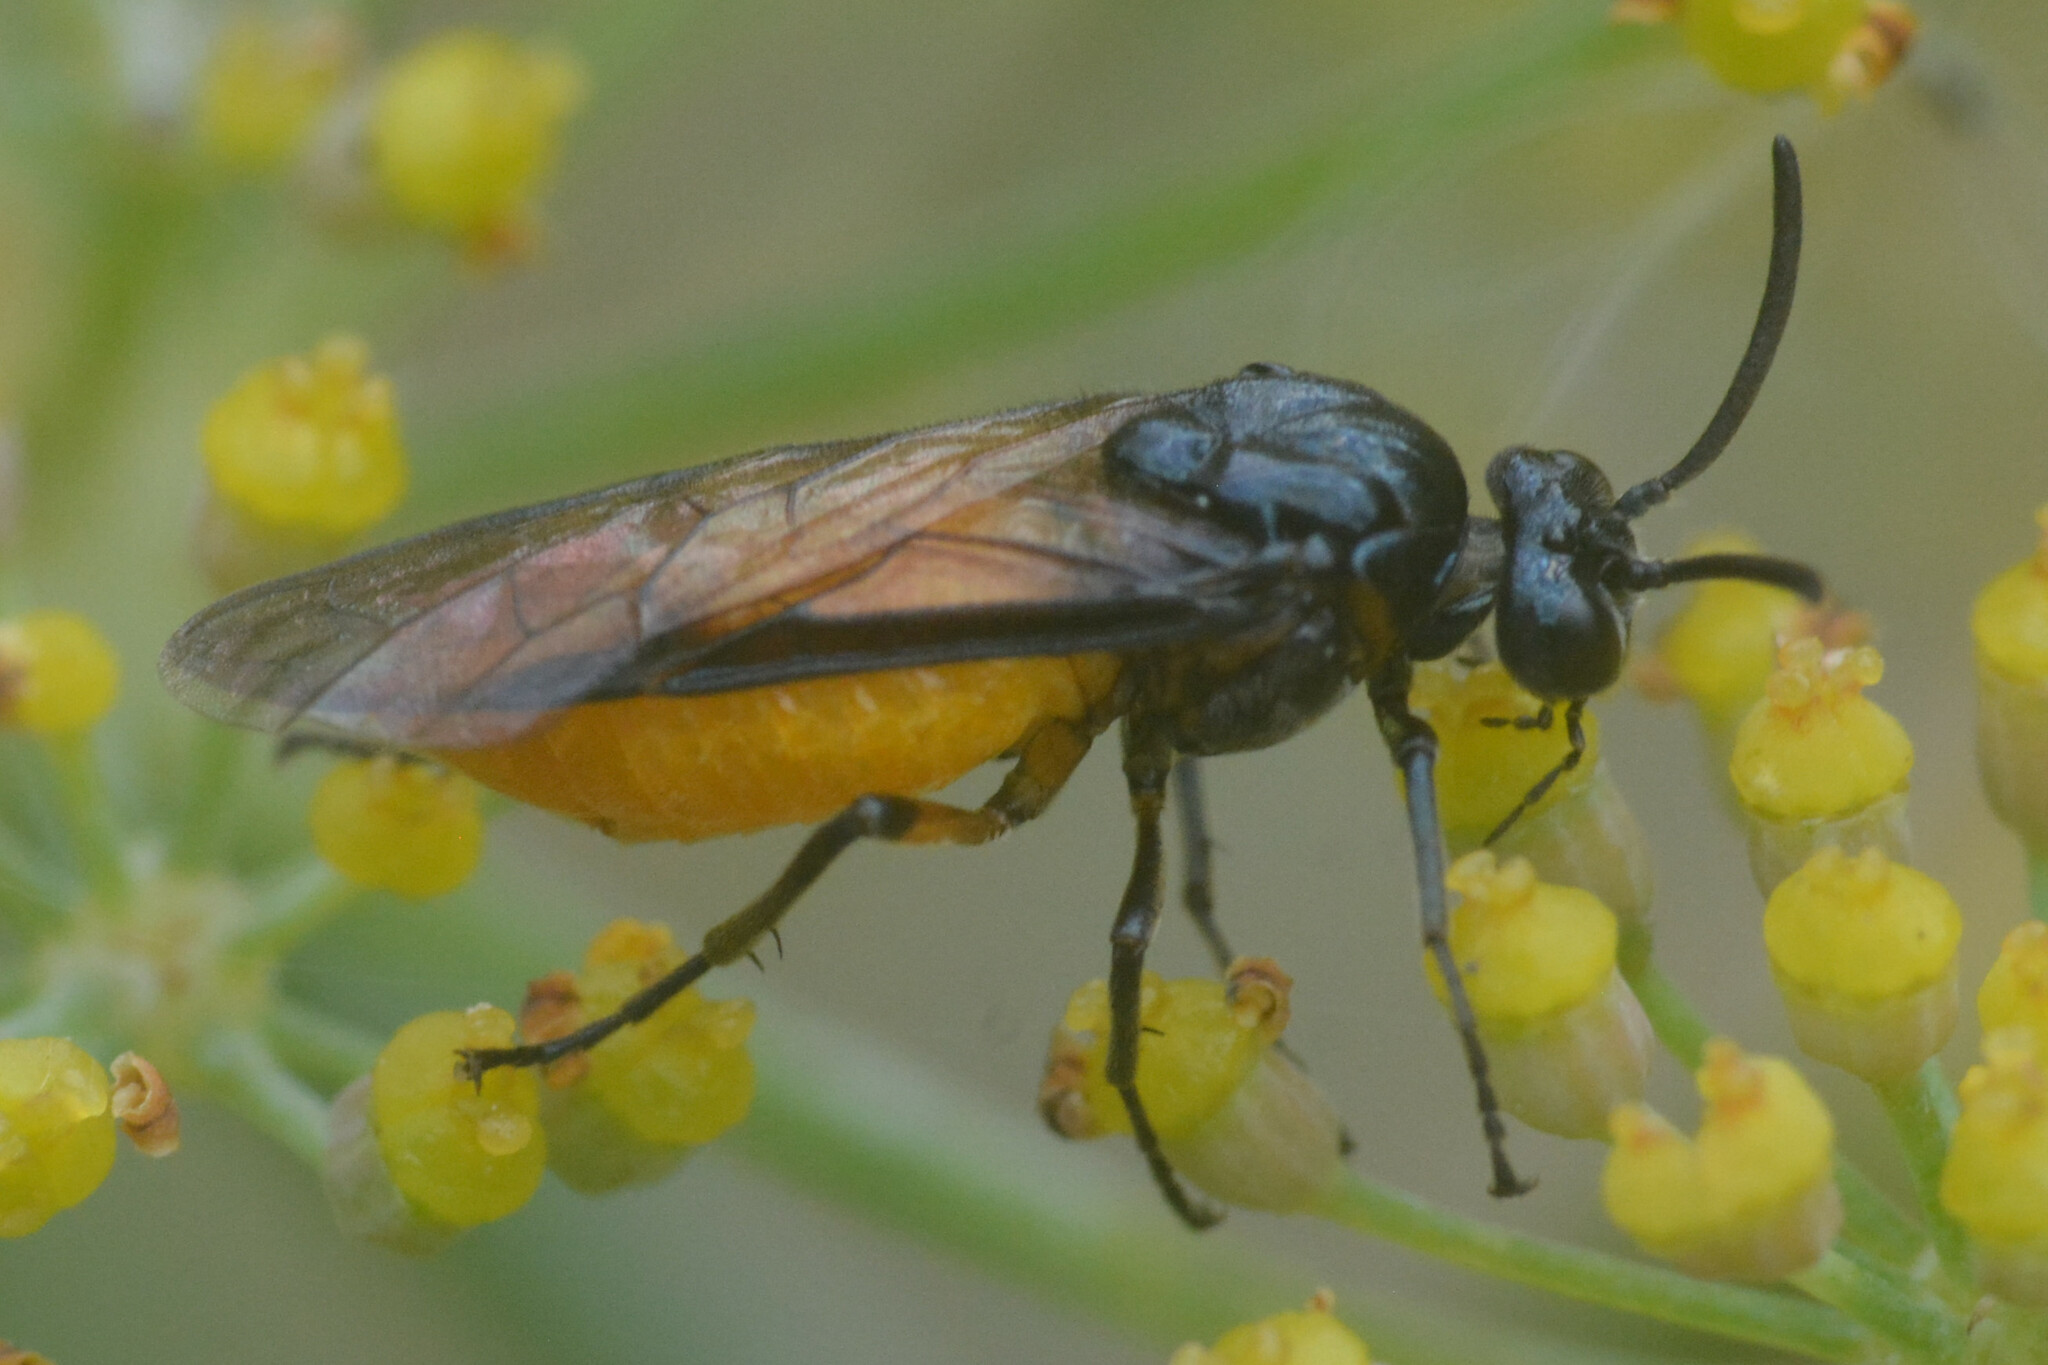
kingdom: Animalia
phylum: Arthropoda
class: Insecta
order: Hymenoptera
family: Argidae
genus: Arge
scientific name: Arge pagana
